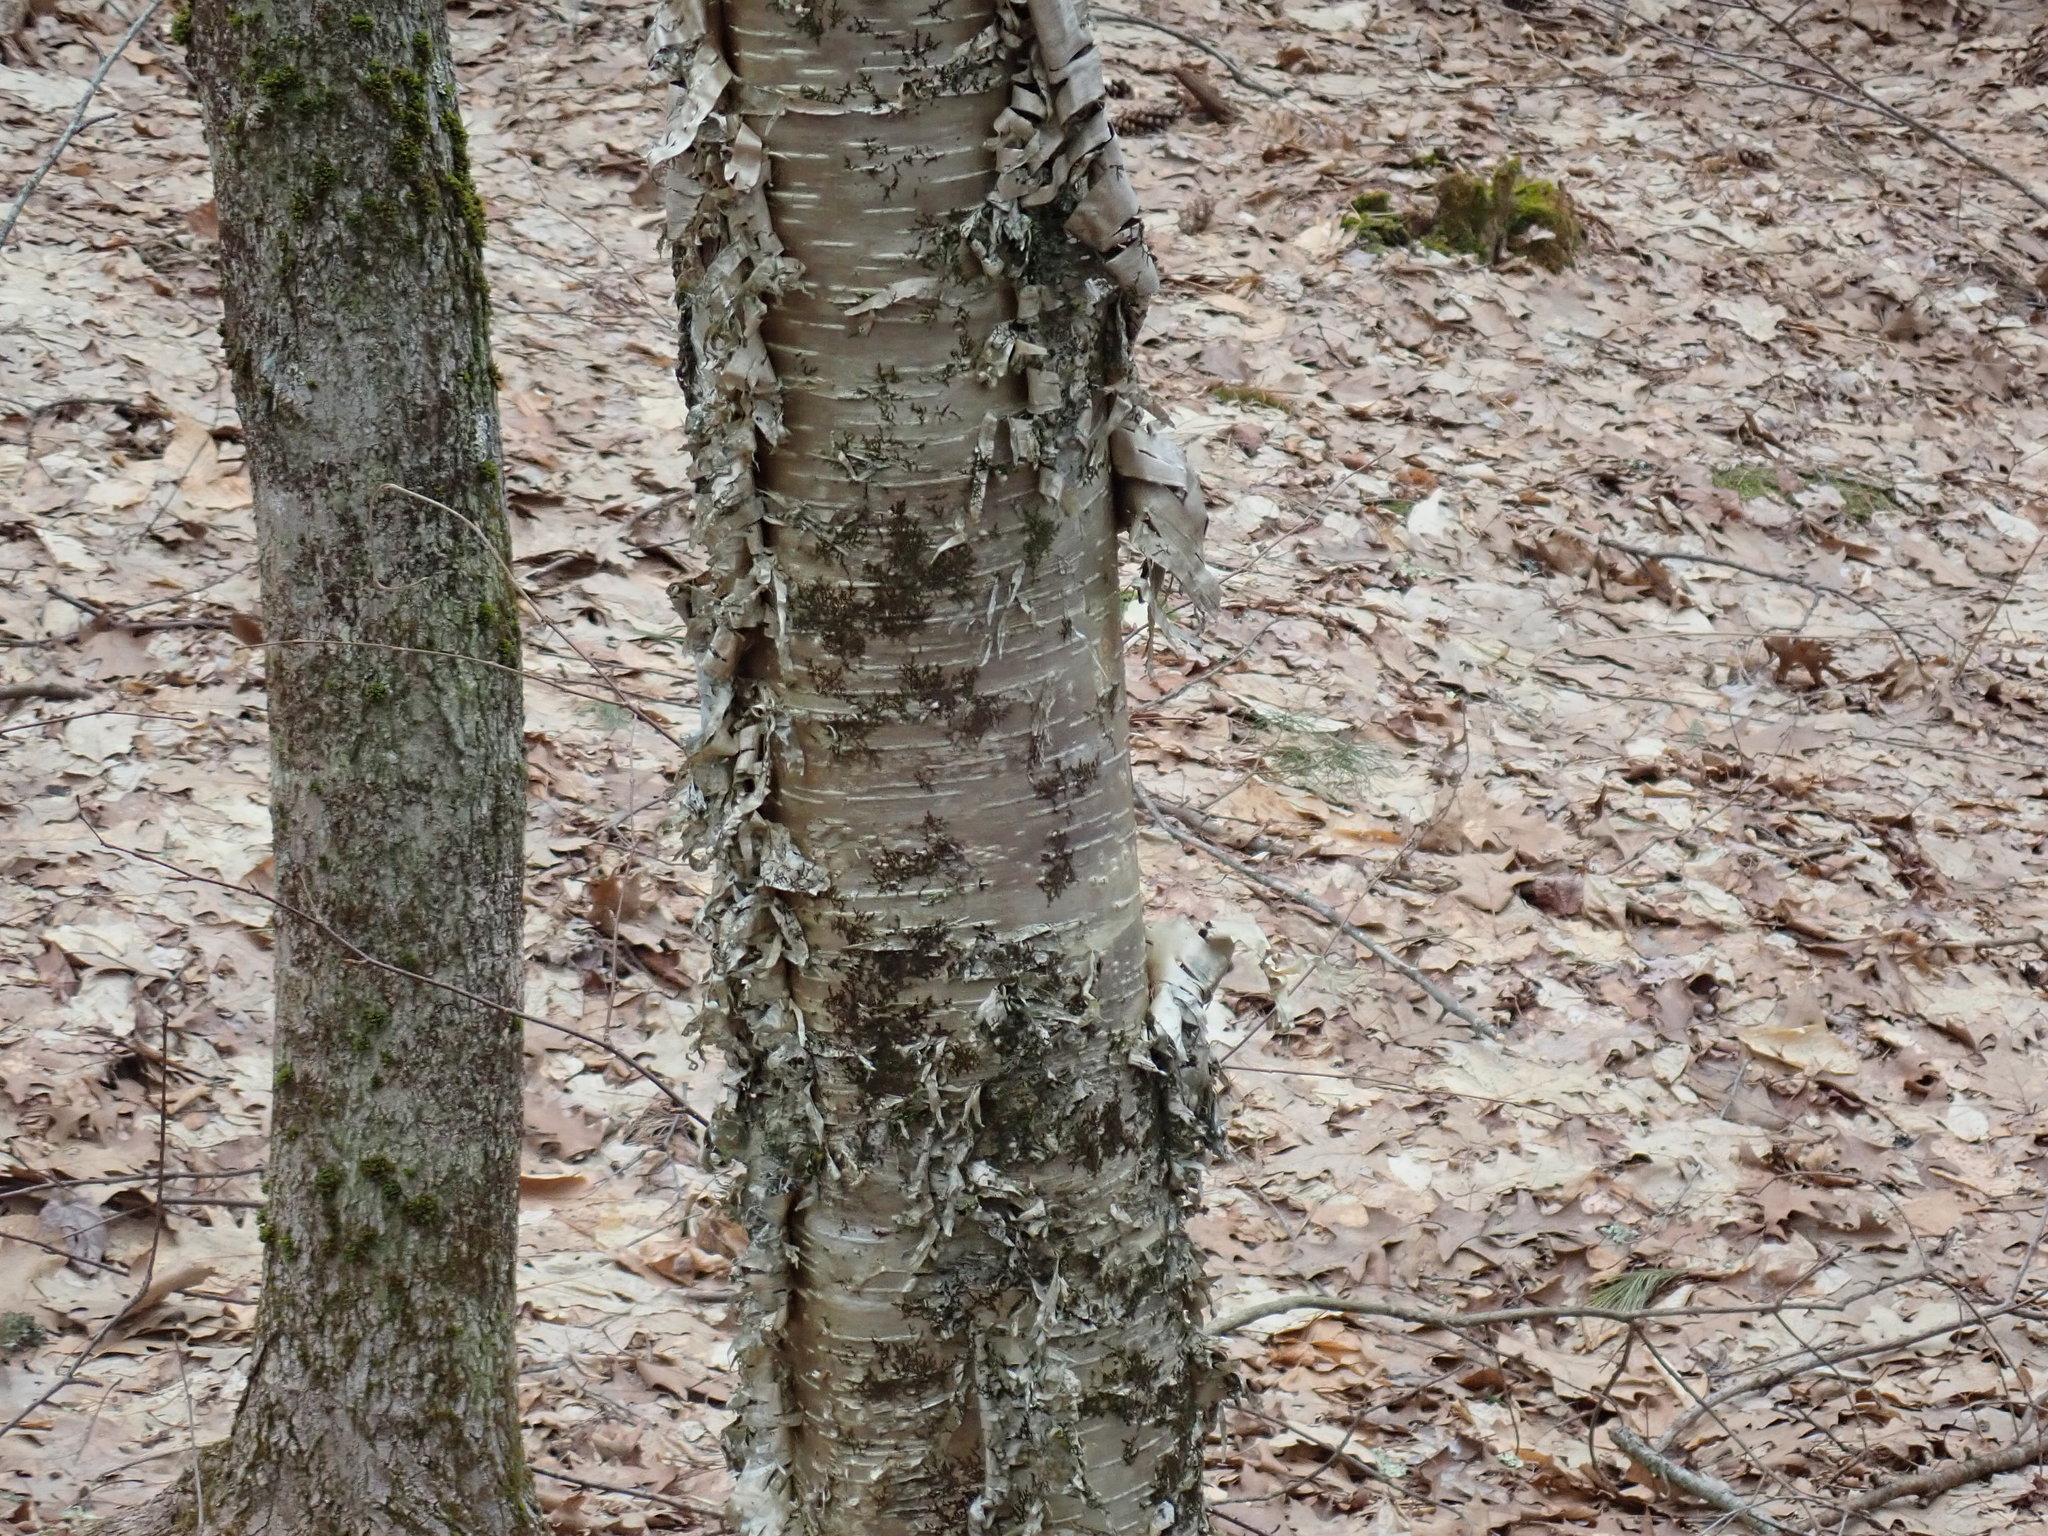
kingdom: Plantae
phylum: Tracheophyta
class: Magnoliopsida
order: Fagales
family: Betulaceae
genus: Betula
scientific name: Betula alleghaniensis
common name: Yellow birch
